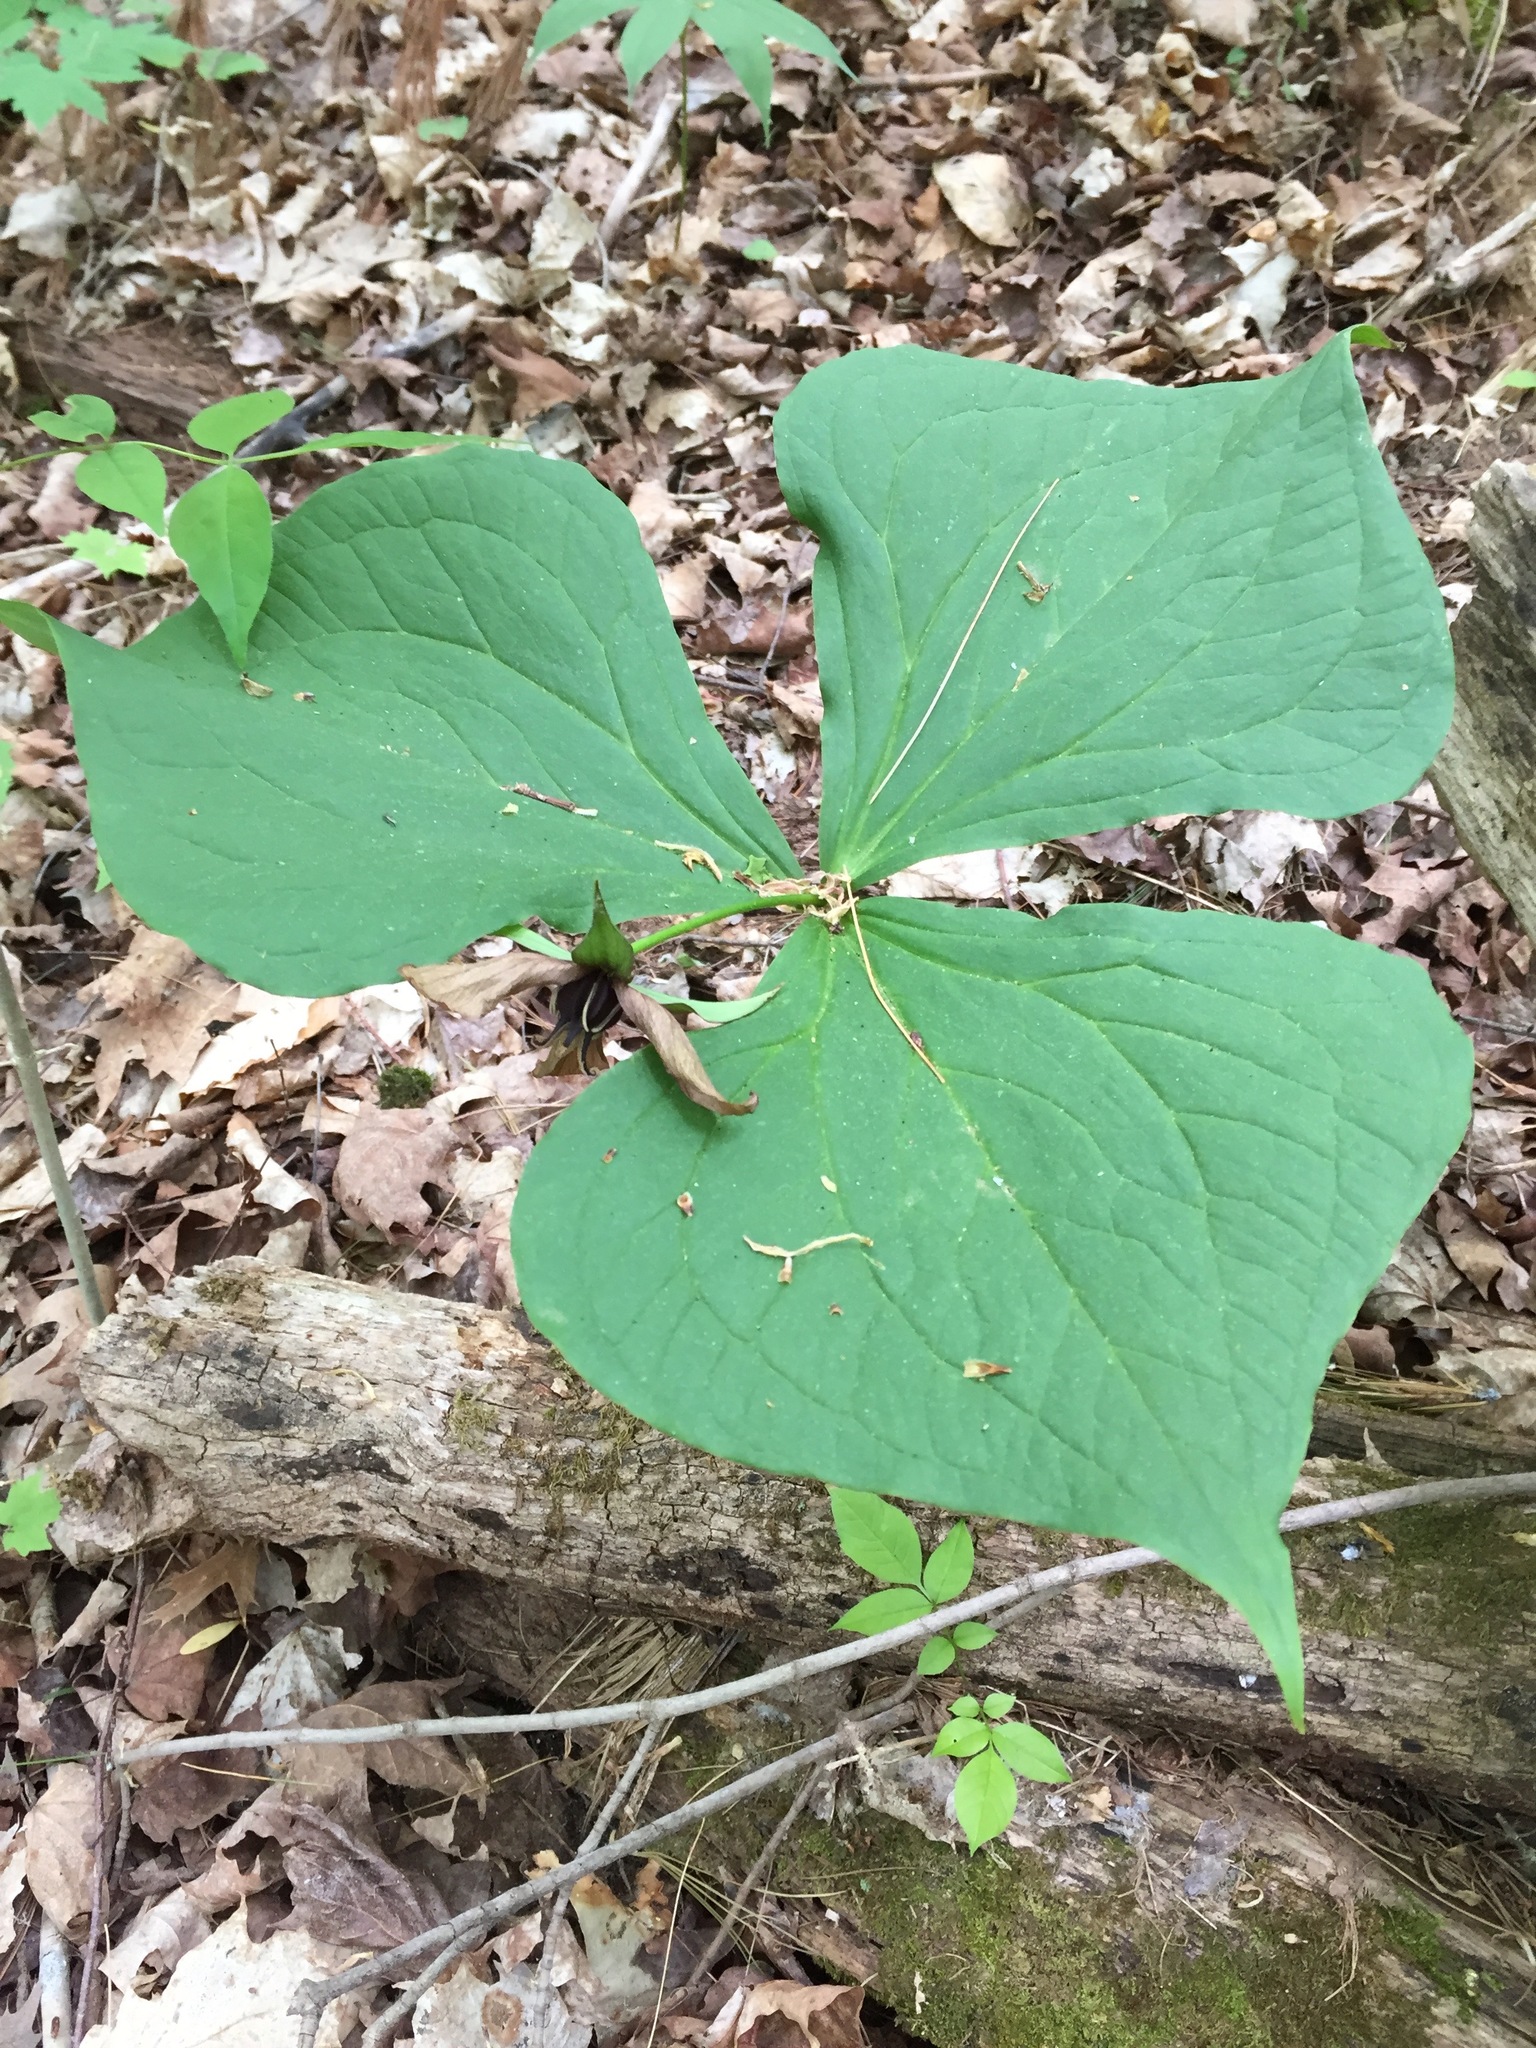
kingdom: Plantae
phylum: Tracheophyta
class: Liliopsida
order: Liliales
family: Melanthiaceae
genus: Trillium
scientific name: Trillium erectum
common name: Purple trillium
